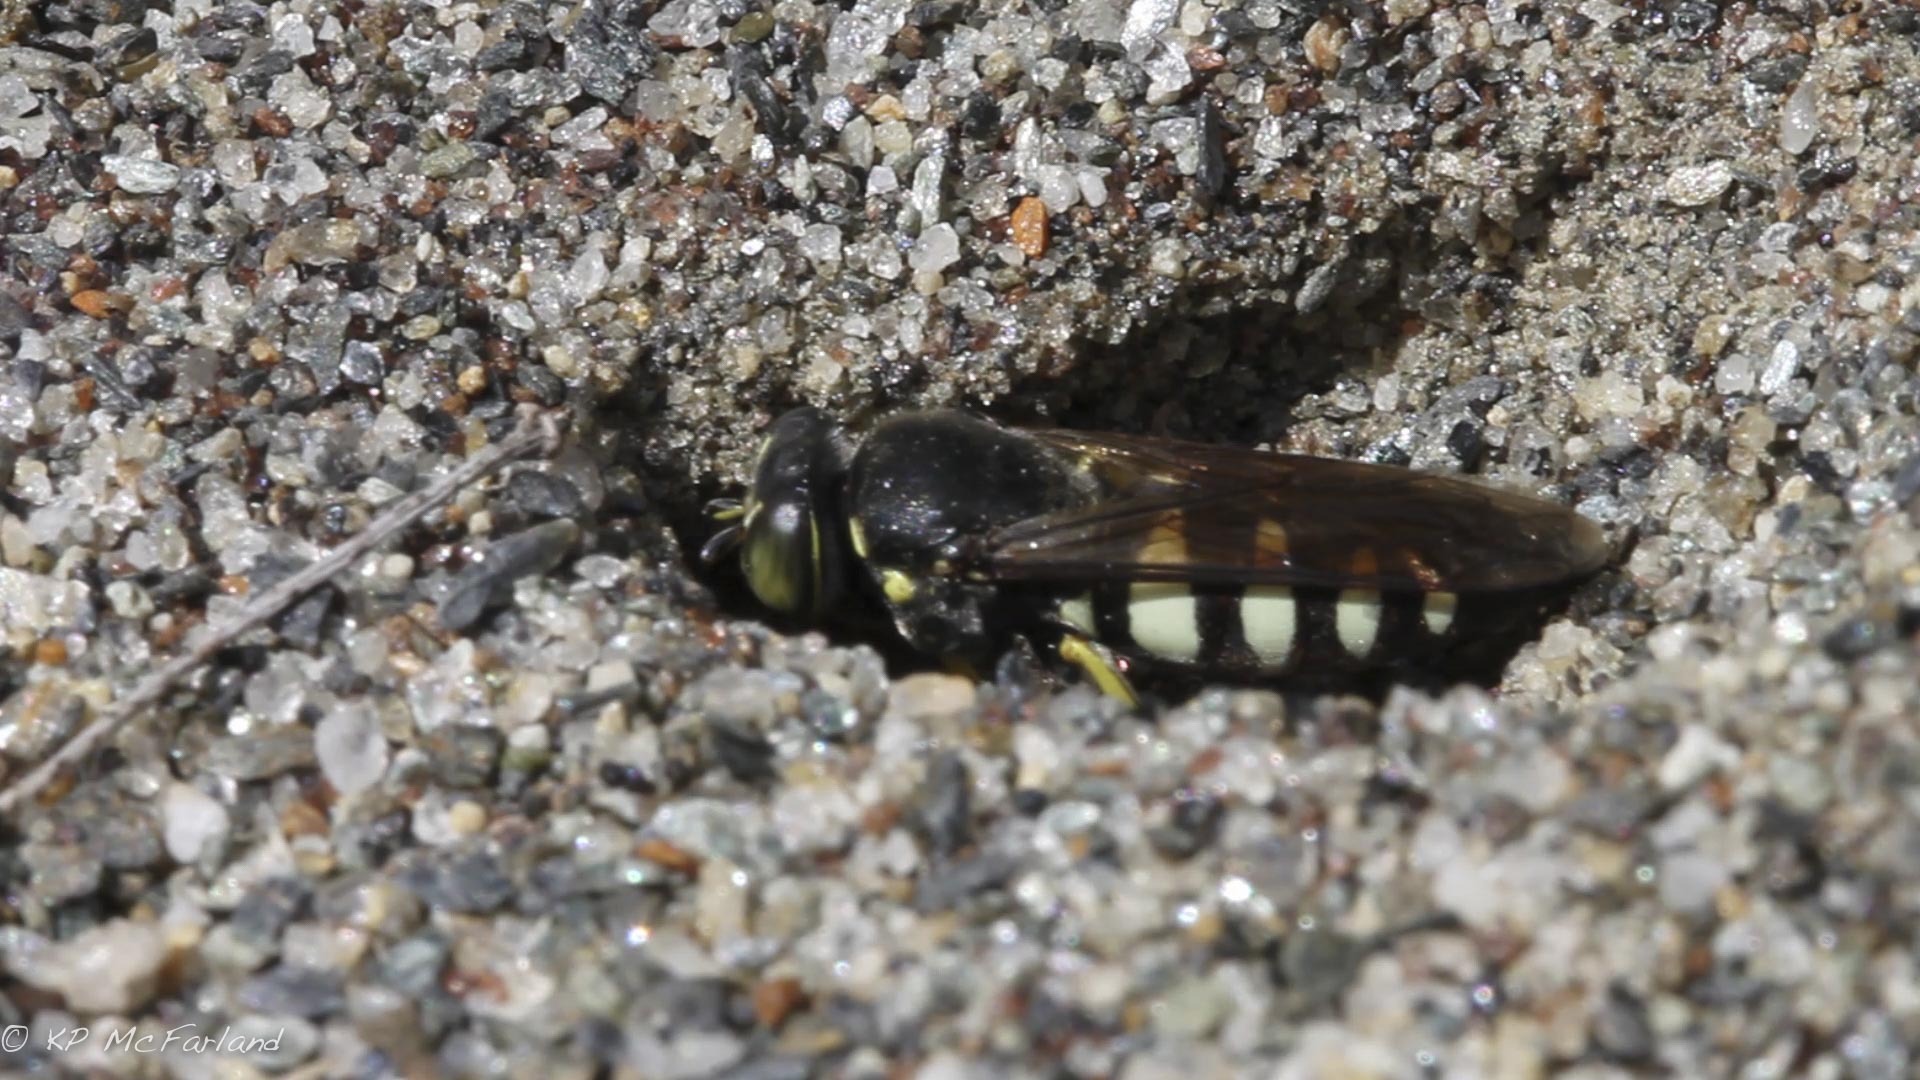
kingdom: Animalia
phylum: Arthropoda
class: Insecta
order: Hymenoptera
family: Crabronidae
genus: Bicyrtes
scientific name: Bicyrtes quadrifasciatus
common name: Four-banded stink bug hunter wasp
